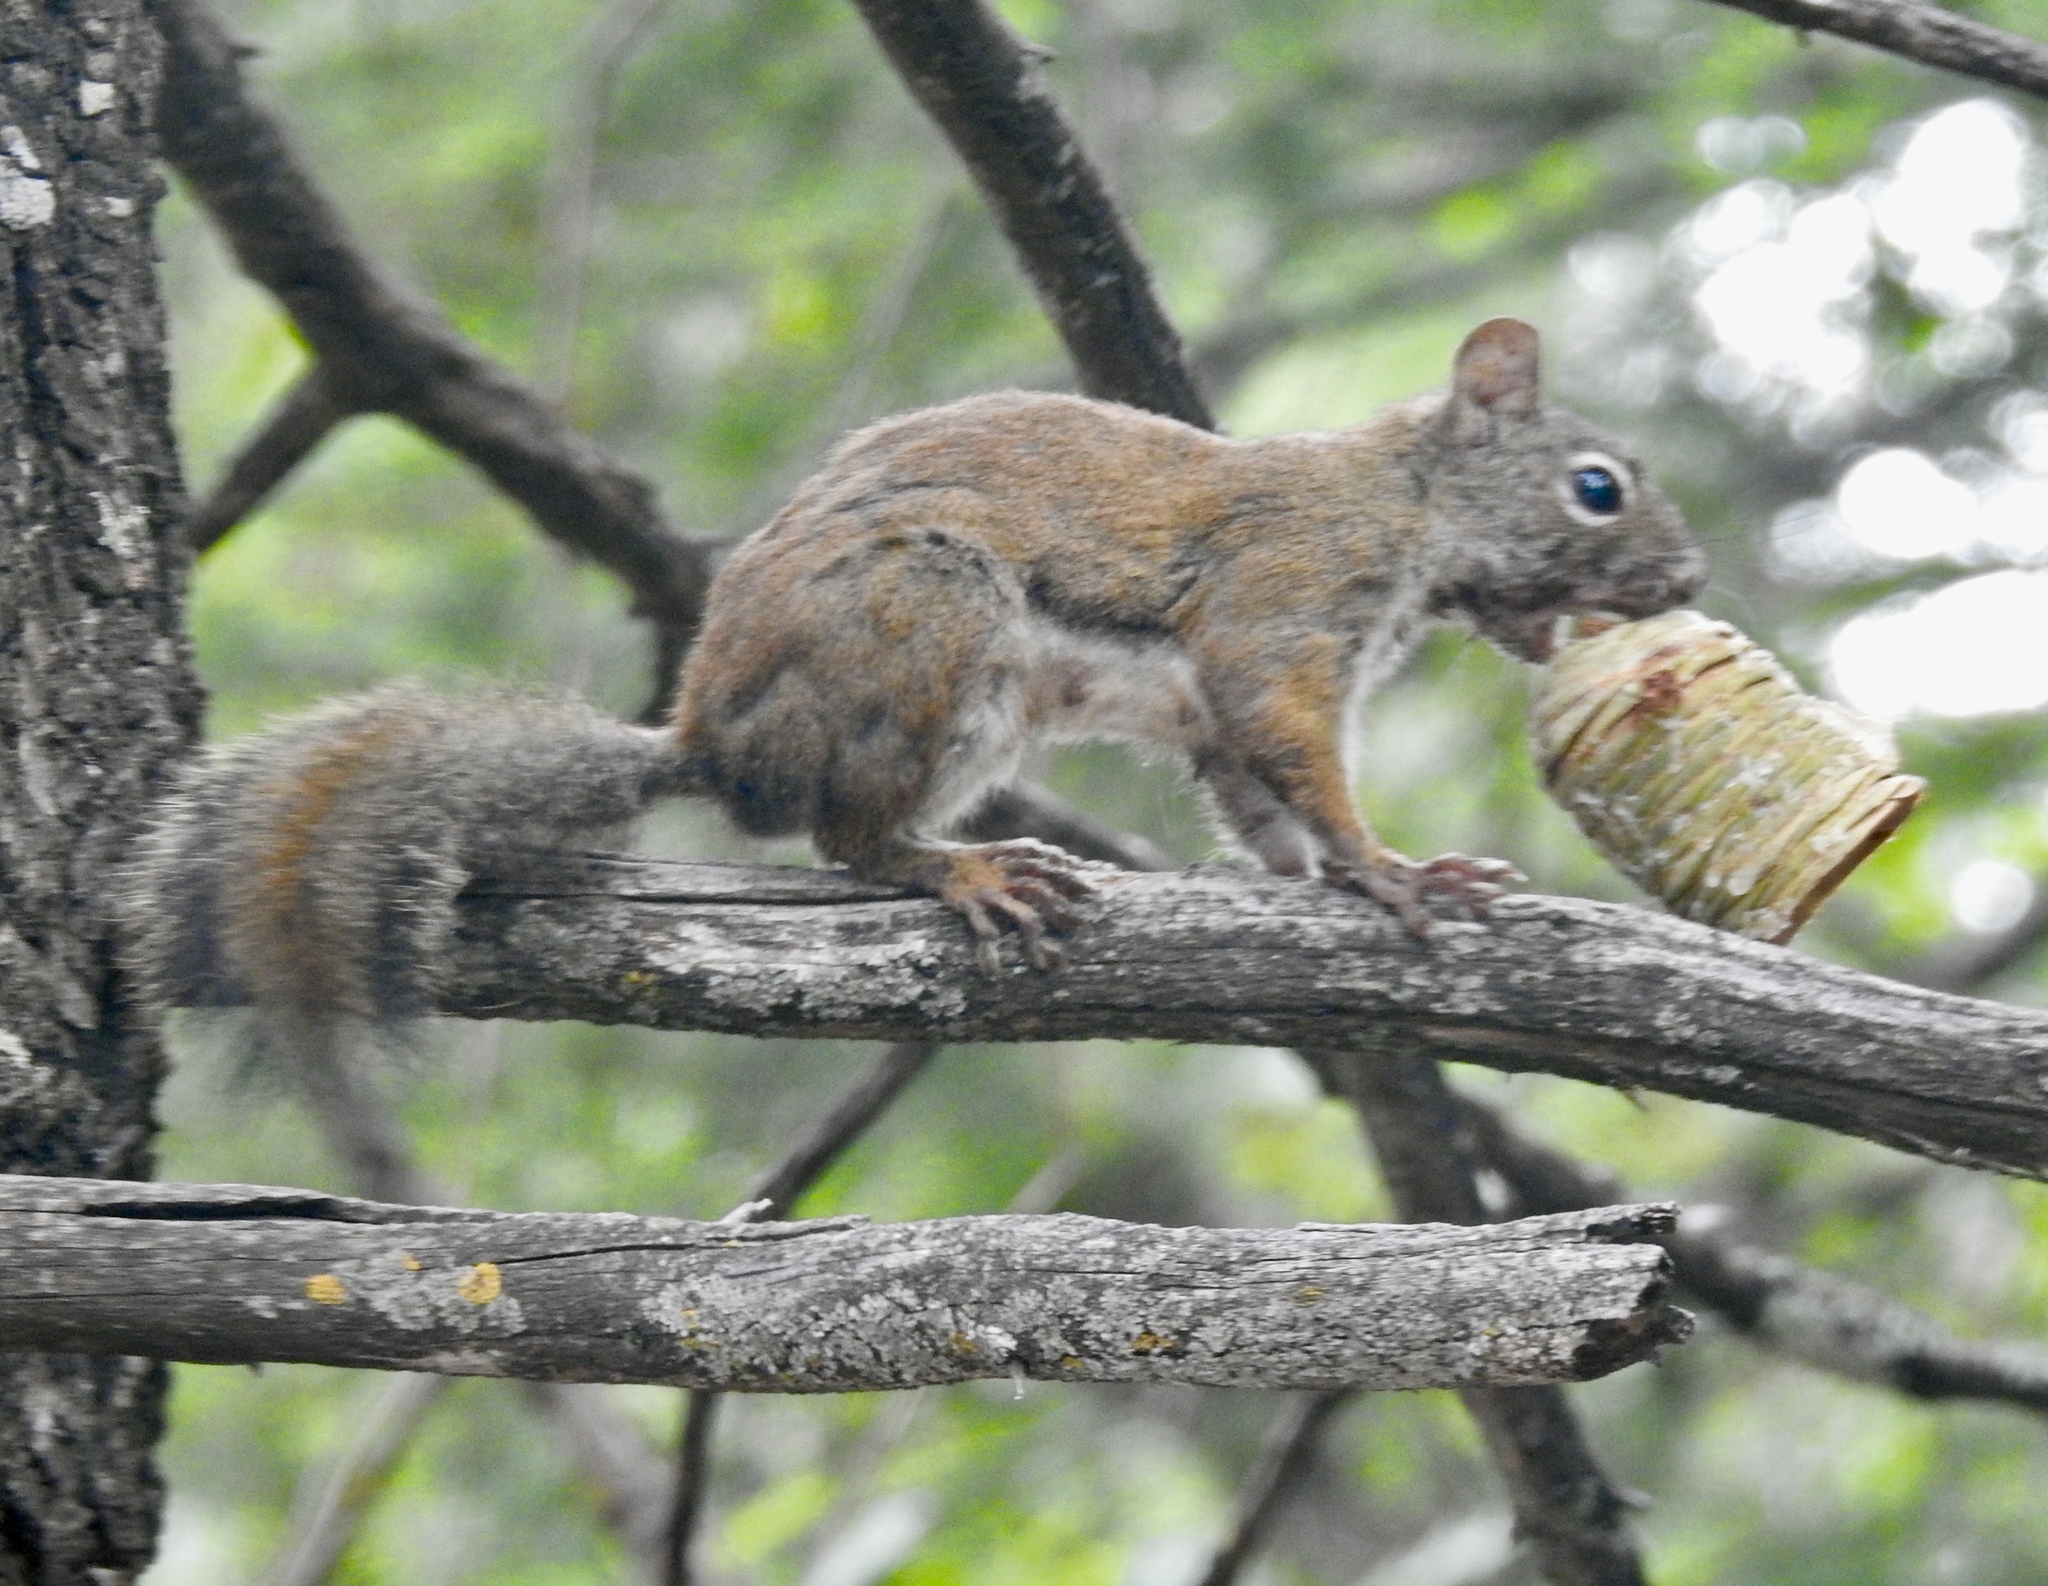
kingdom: Animalia
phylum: Chordata
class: Mammalia
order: Rodentia
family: Sciuridae
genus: Tamiasciurus
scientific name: Tamiasciurus hudsonicus
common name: Red squirrel
